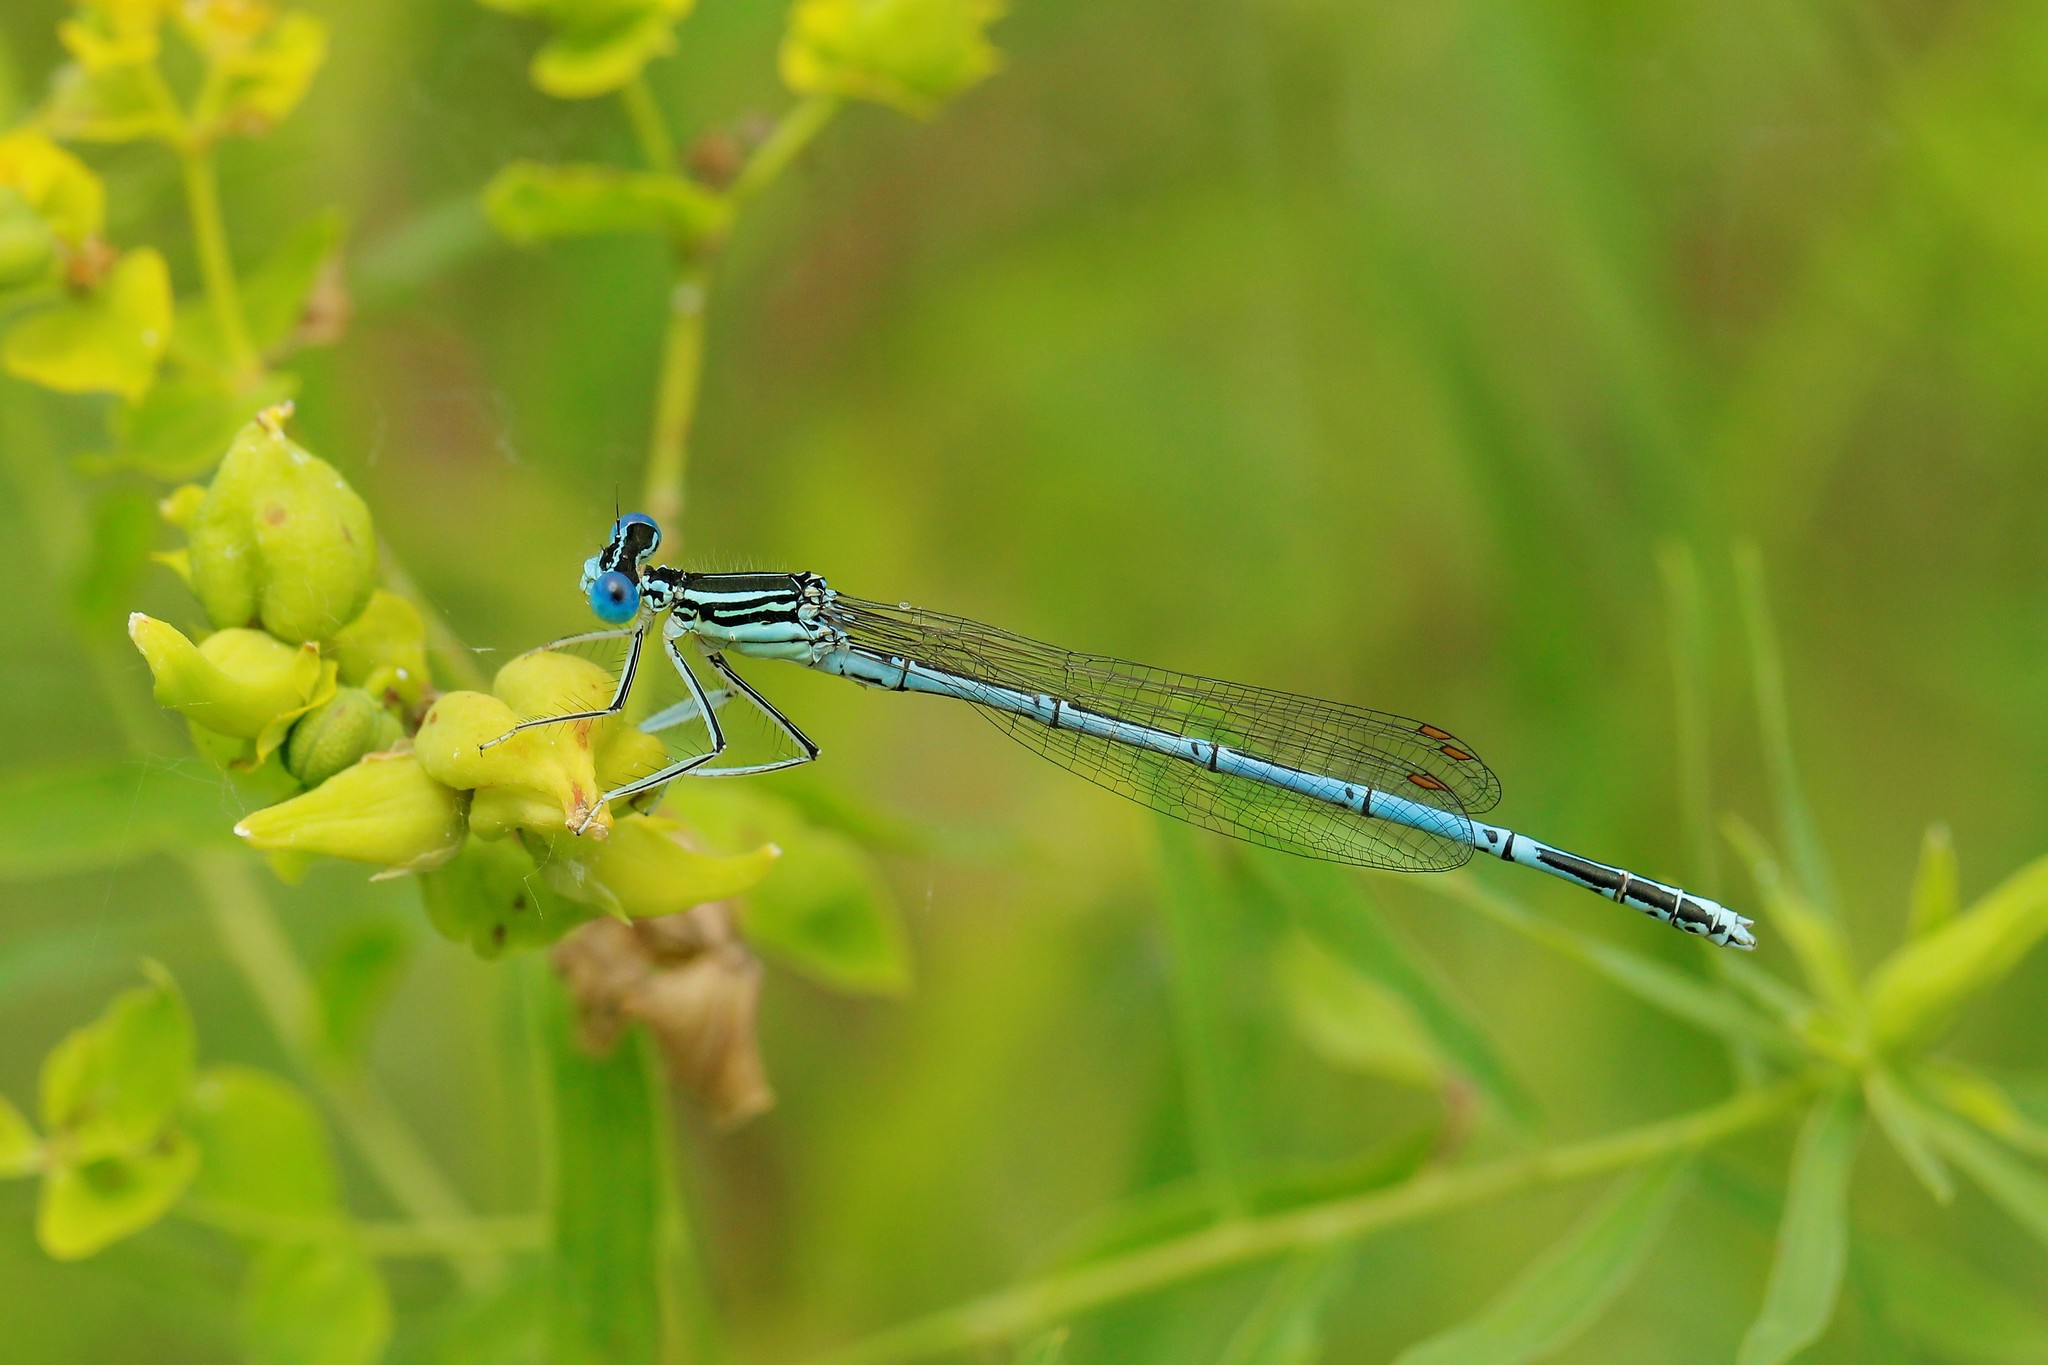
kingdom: Animalia
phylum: Arthropoda
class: Insecta
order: Odonata
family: Platycnemididae
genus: Platycnemis
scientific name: Platycnemis pennipes
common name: White-legged damselfly
